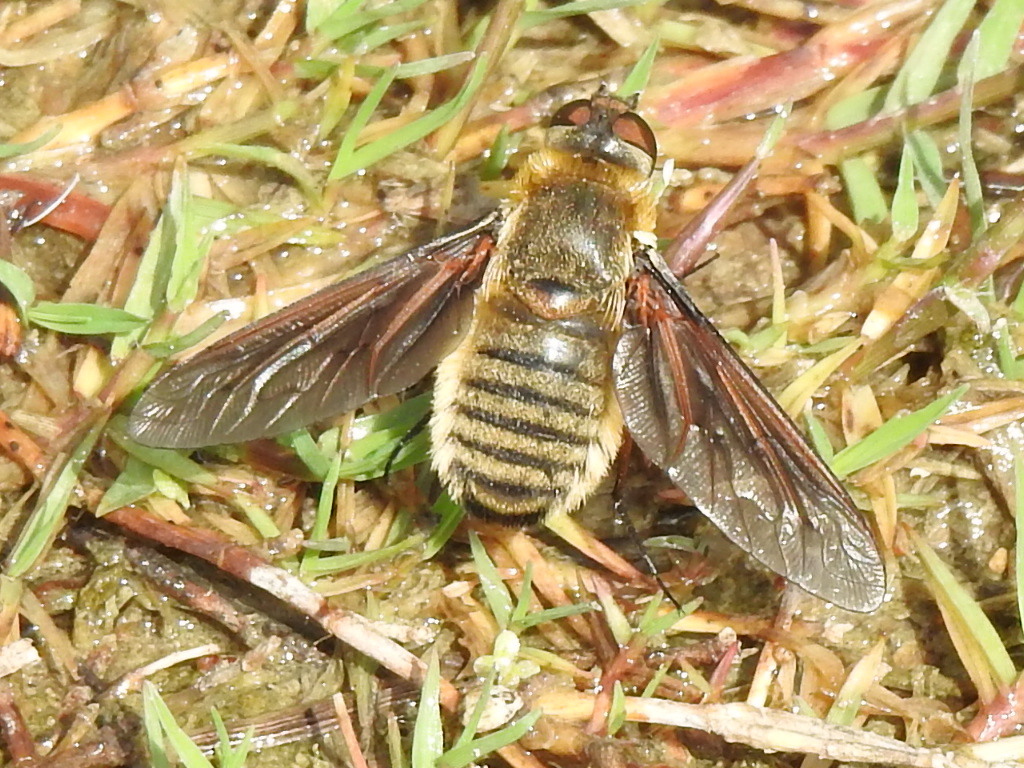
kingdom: Animalia
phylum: Arthropoda
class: Insecta
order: Diptera
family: Bombyliidae
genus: Poecilanthrax
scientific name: Poecilanthrax lucifer
